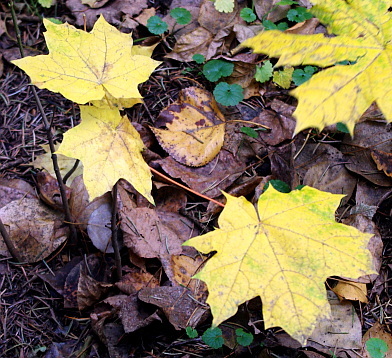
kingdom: Plantae
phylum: Tracheophyta
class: Magnoliopsida
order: Sapindales
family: Sapindaceae
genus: Acer
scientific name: Acer platanoides
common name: Norway maple
